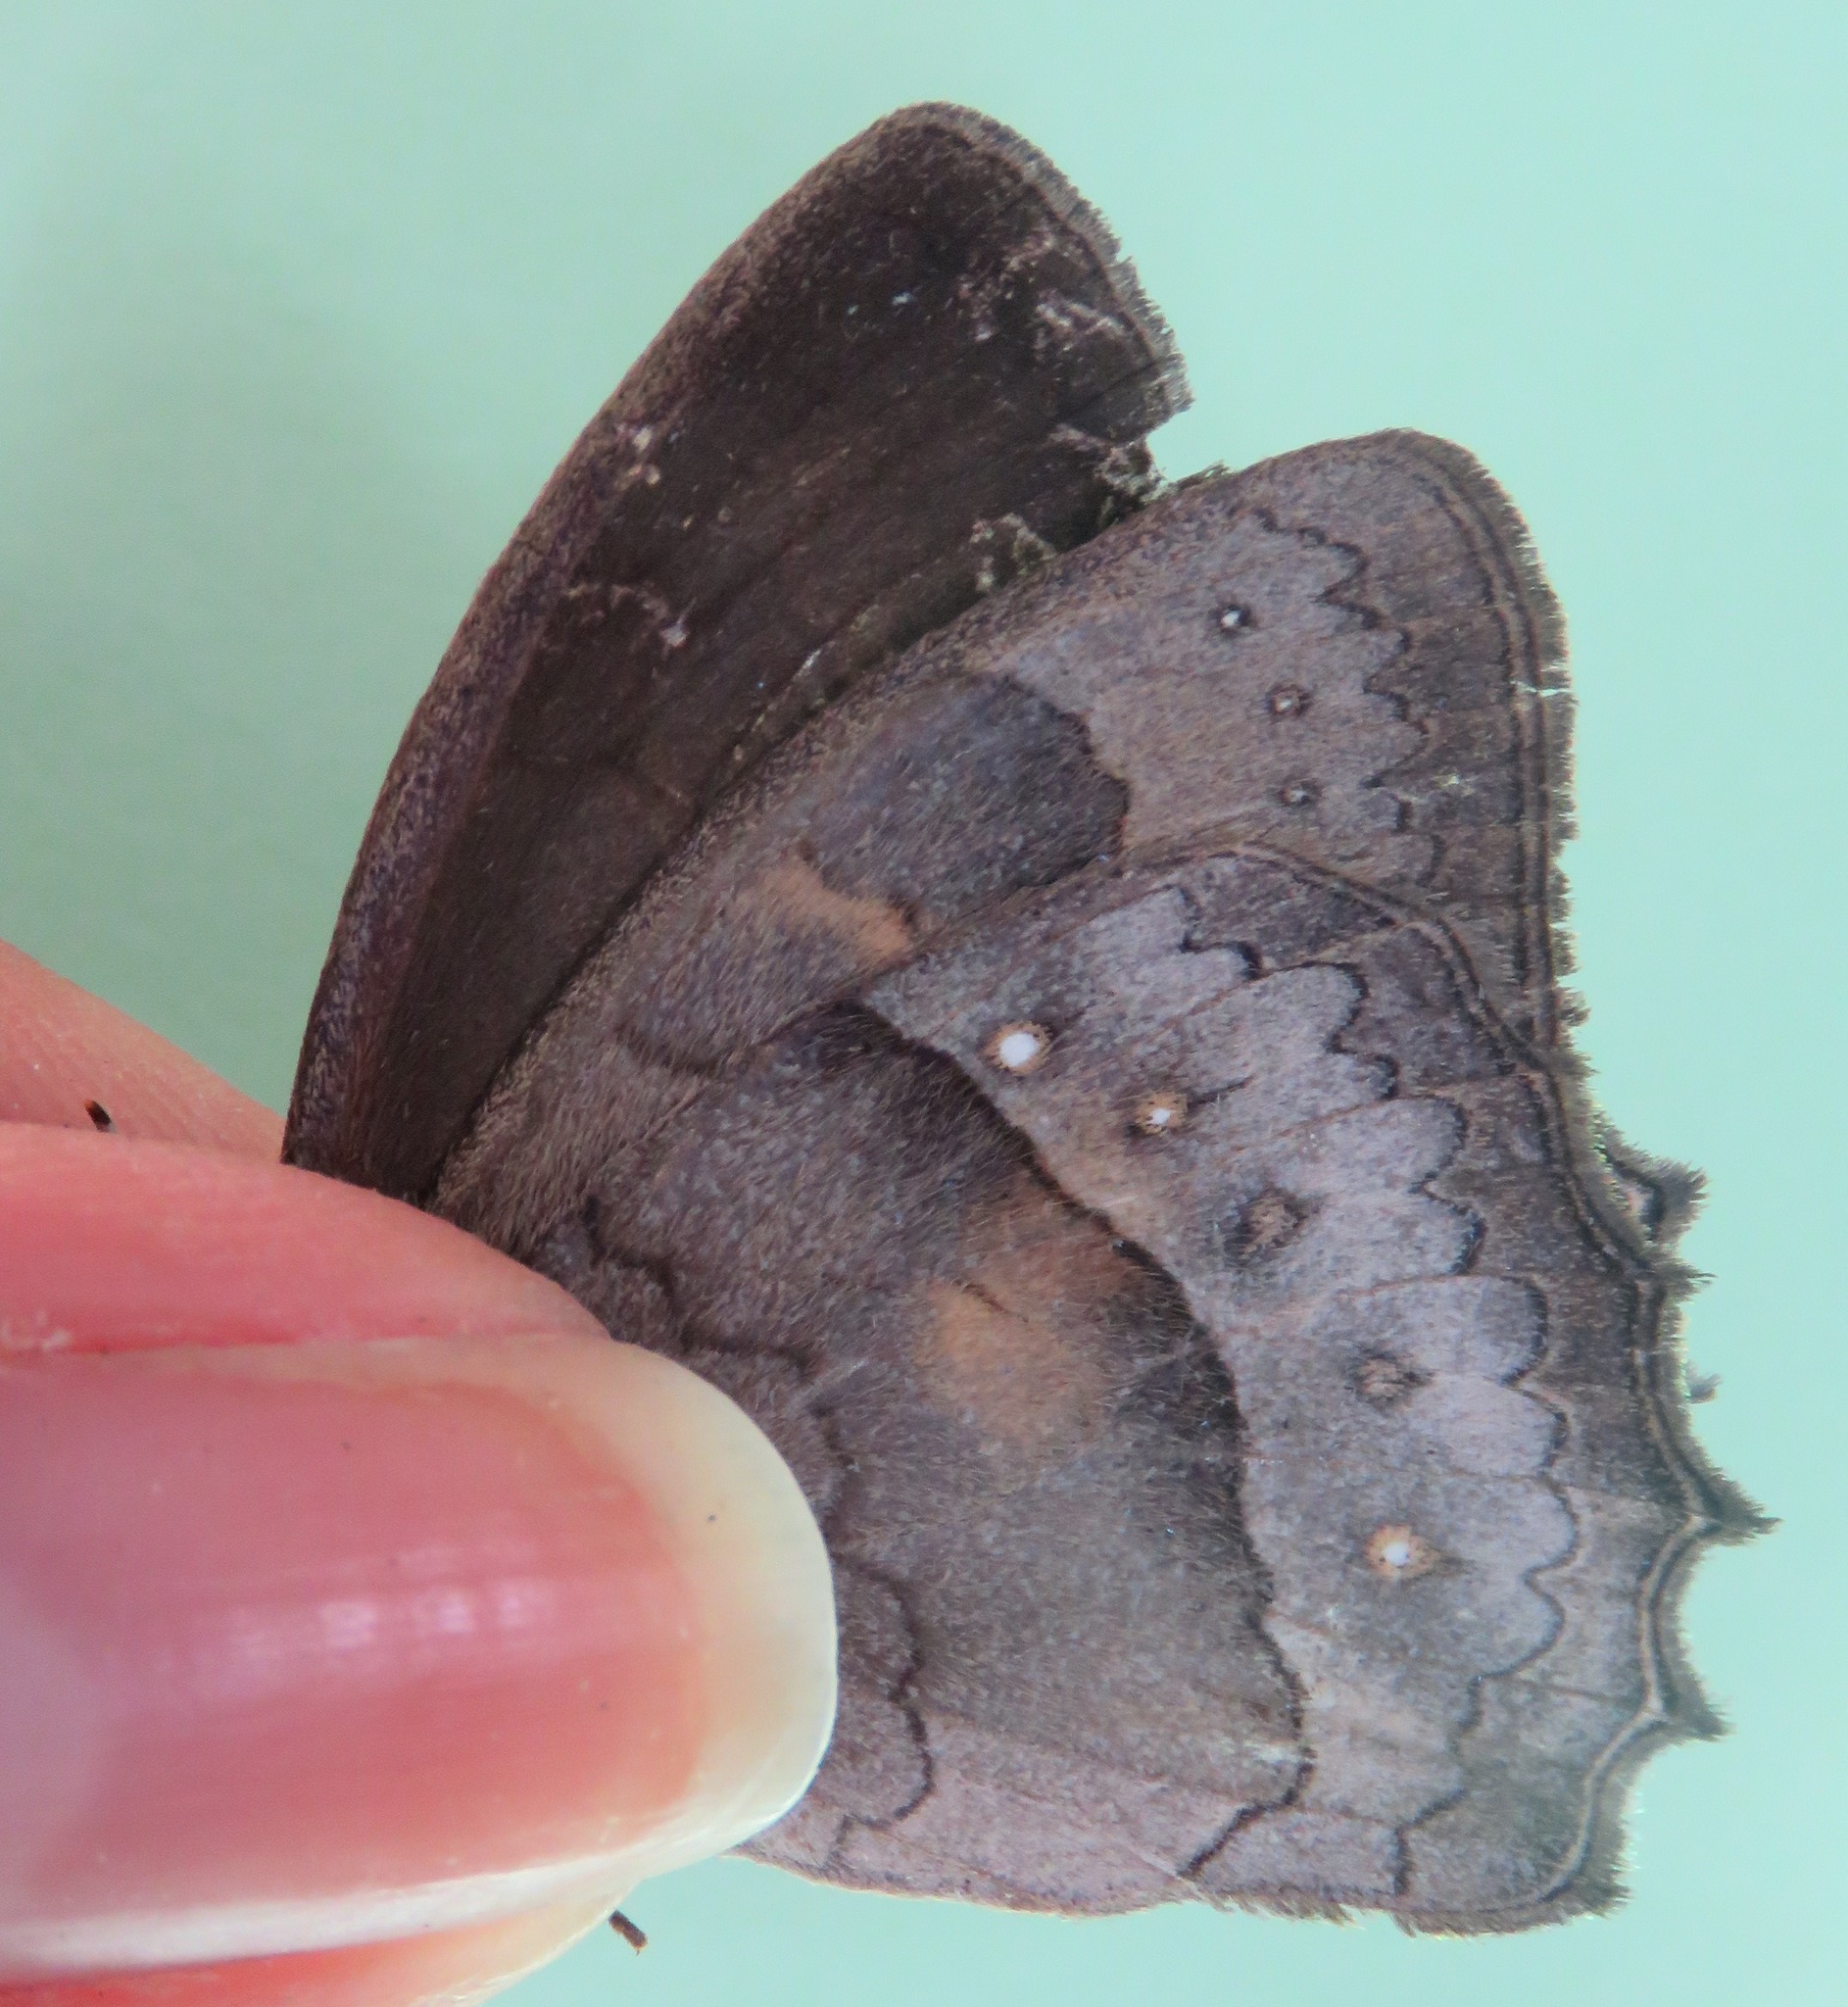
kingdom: Animalia
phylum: Arthropoda
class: Insecta
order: Lepidoptera
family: Nymphalidae
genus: Taygetina
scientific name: Taygetina kerea
